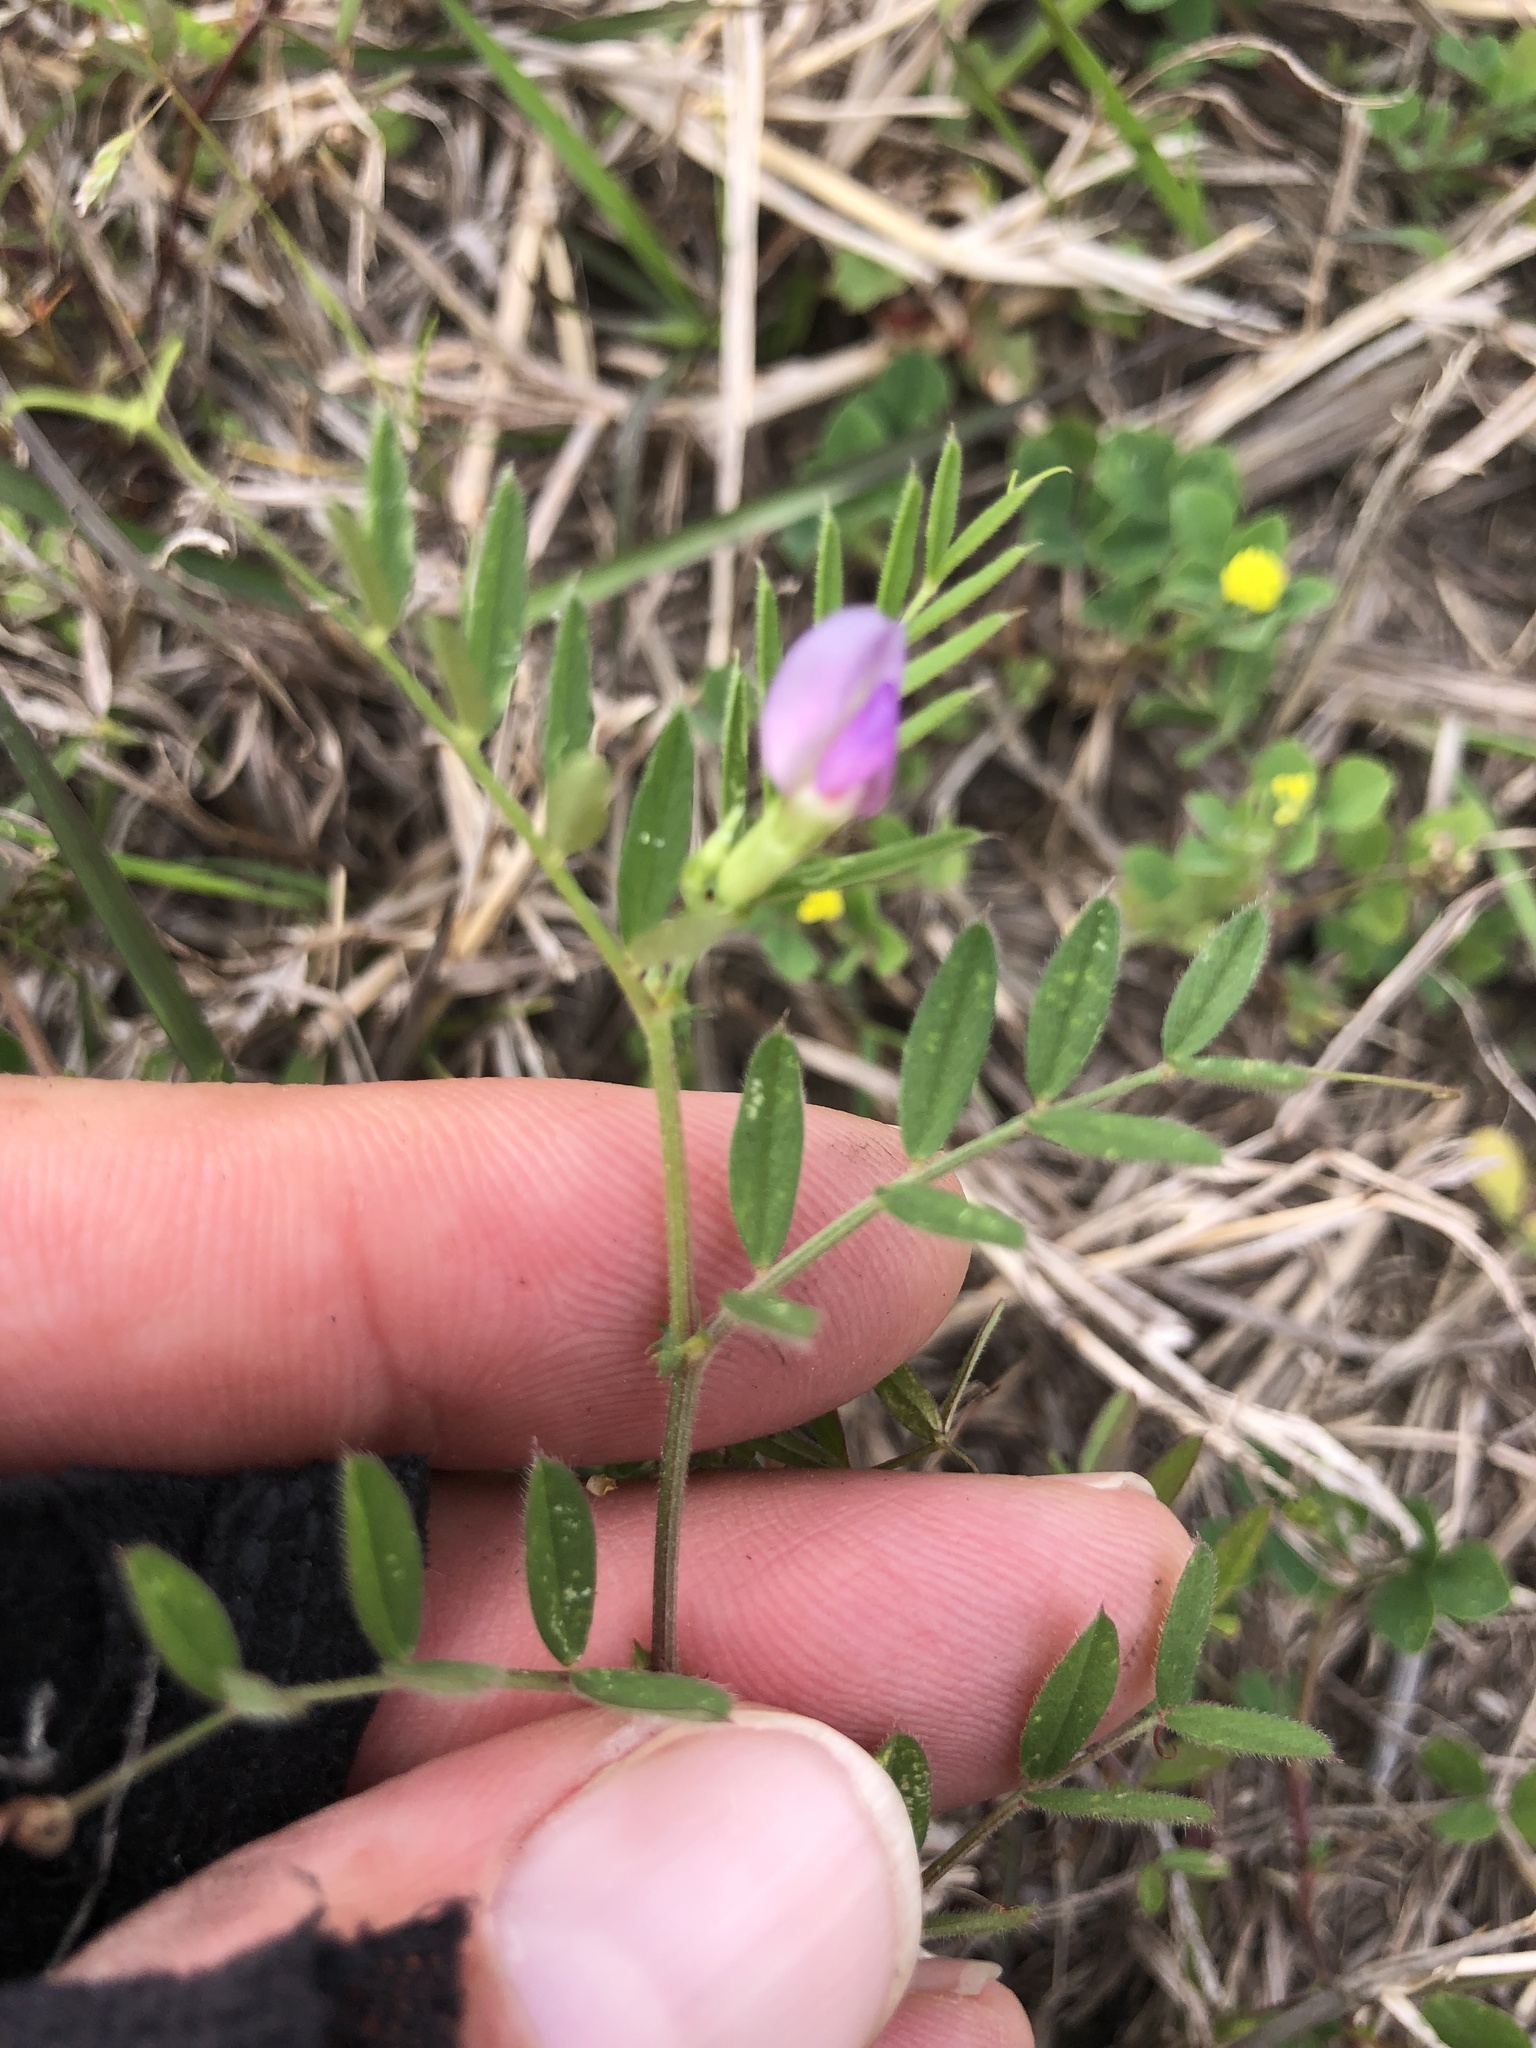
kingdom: Plantae
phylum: Tracheophyta
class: Magnoliopsida
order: Fabales
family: Fabaceae
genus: Vicia
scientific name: Vicia sativa
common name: Garden vetch
